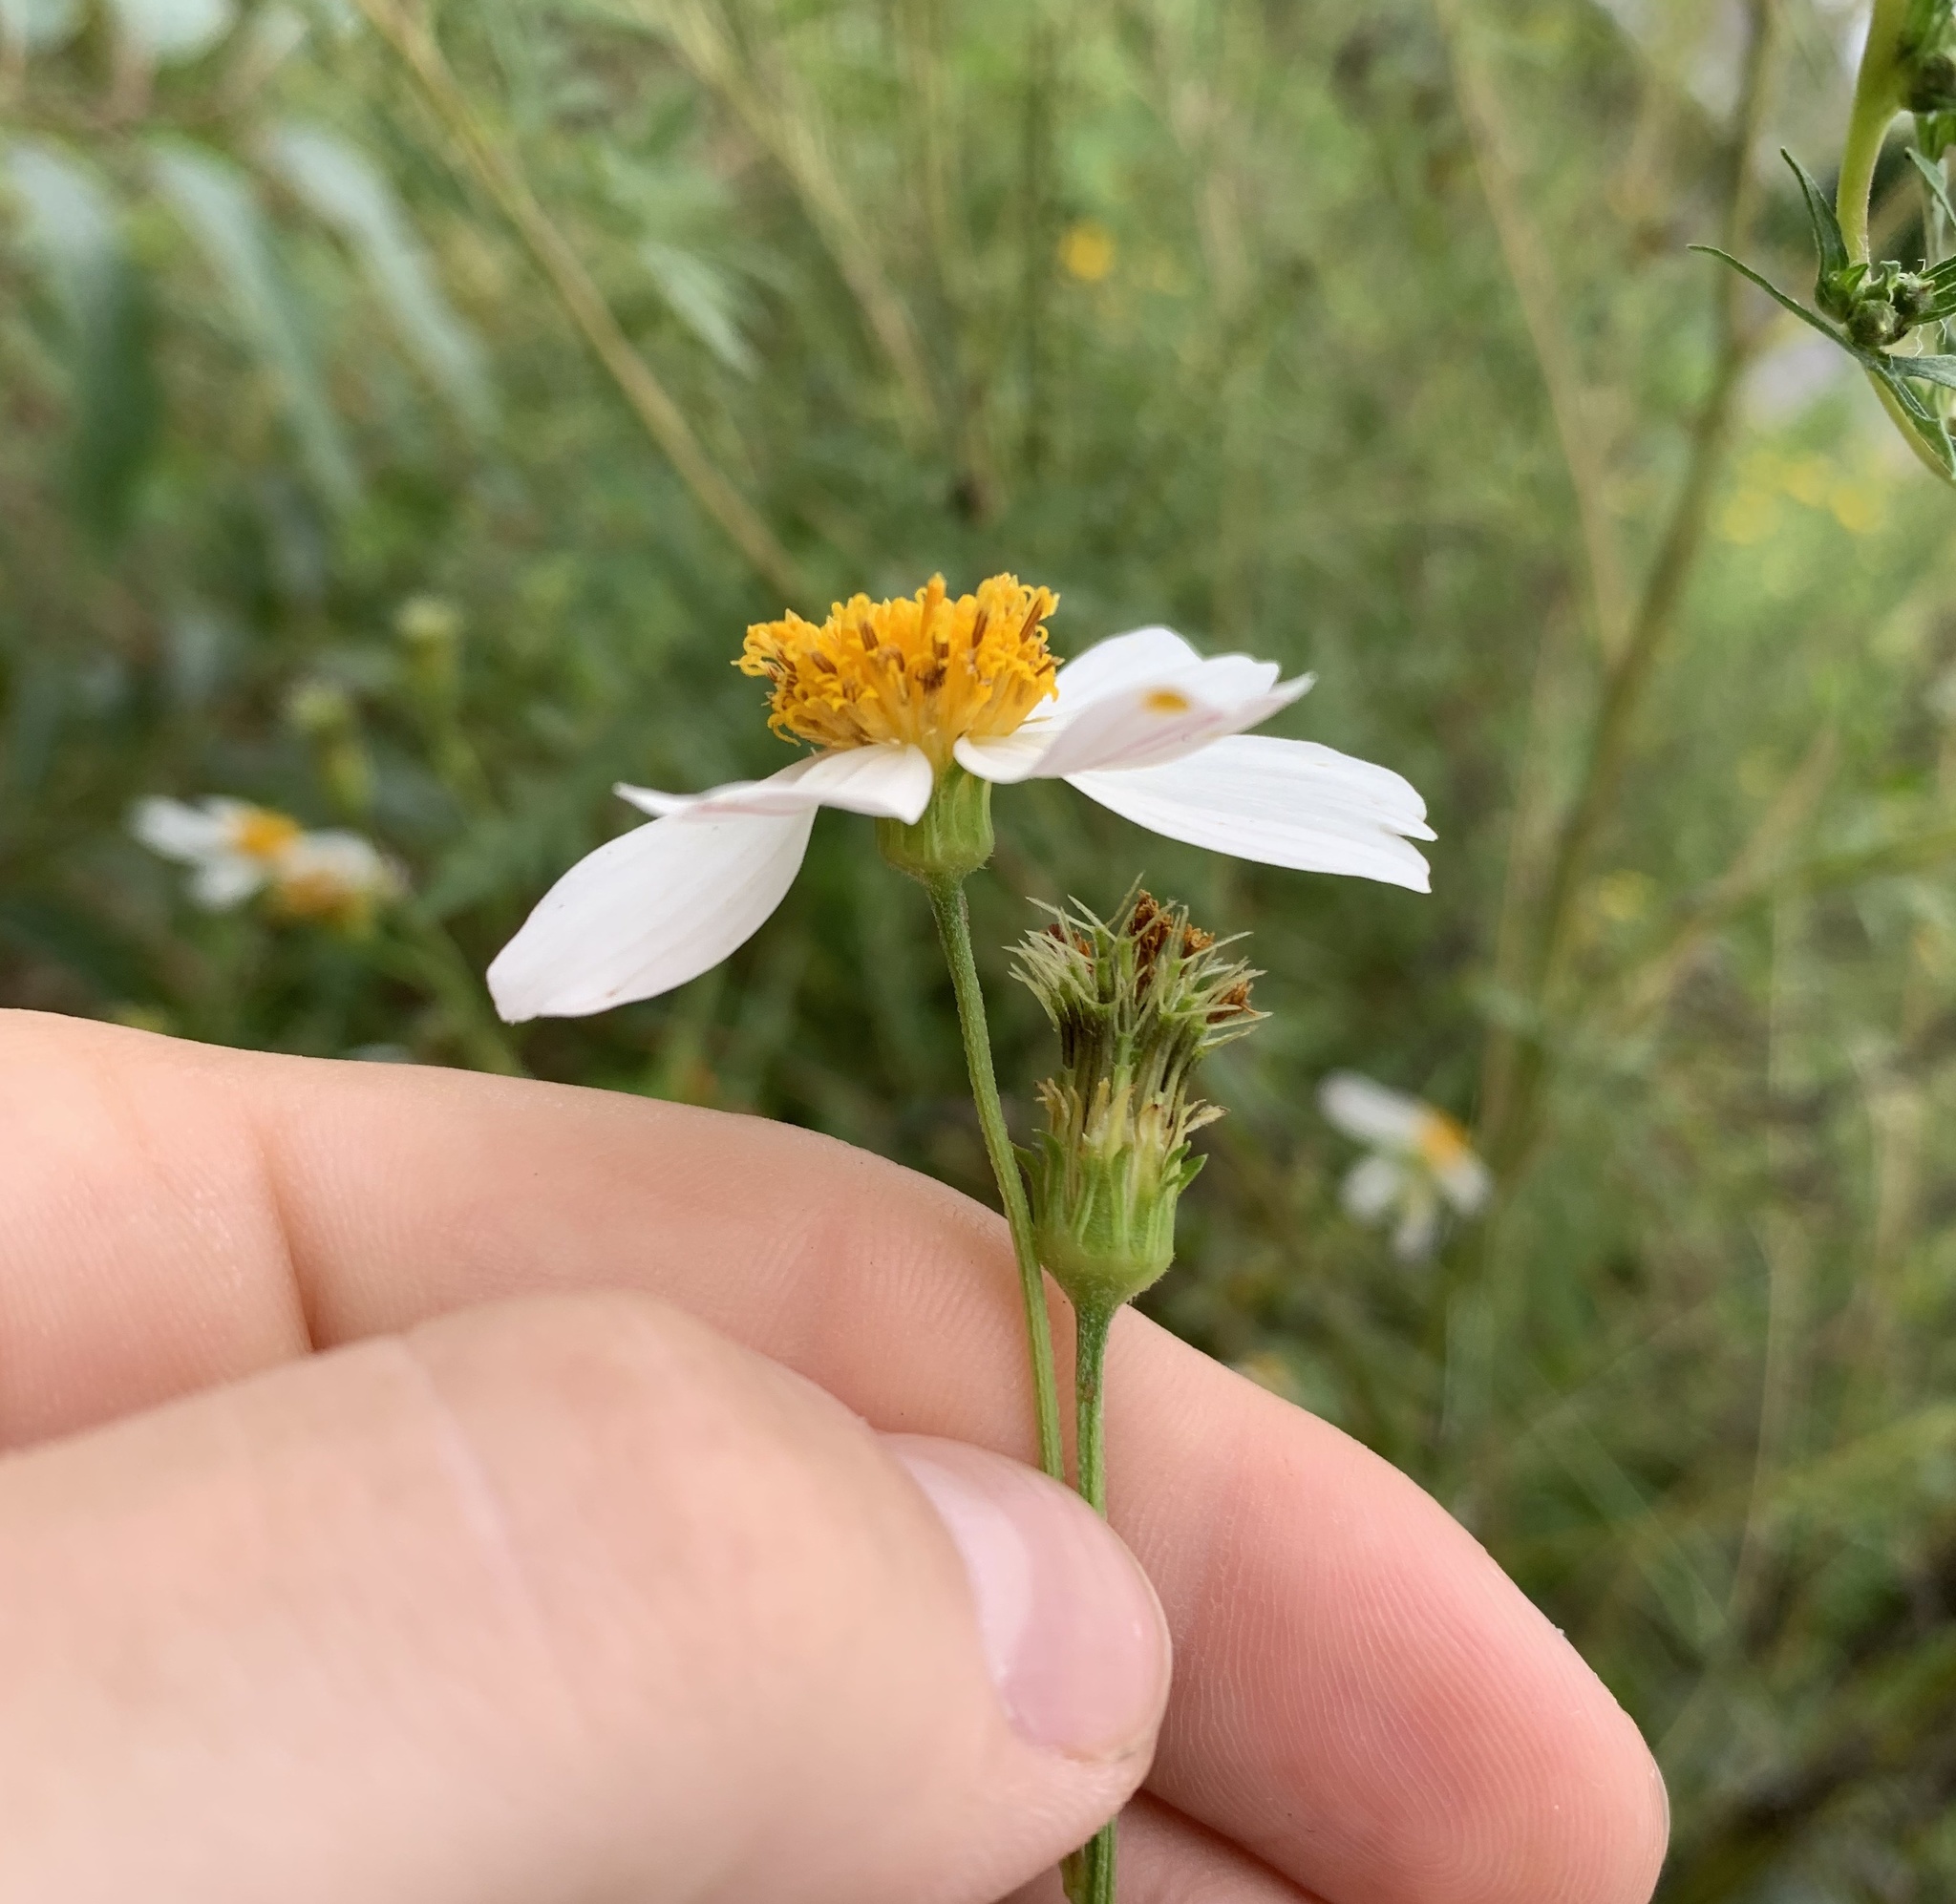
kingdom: Plantae
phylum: Tracheophyta
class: Magnoliopsida
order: Asterales
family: Asteraceae
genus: Bidens
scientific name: Bidens alba
